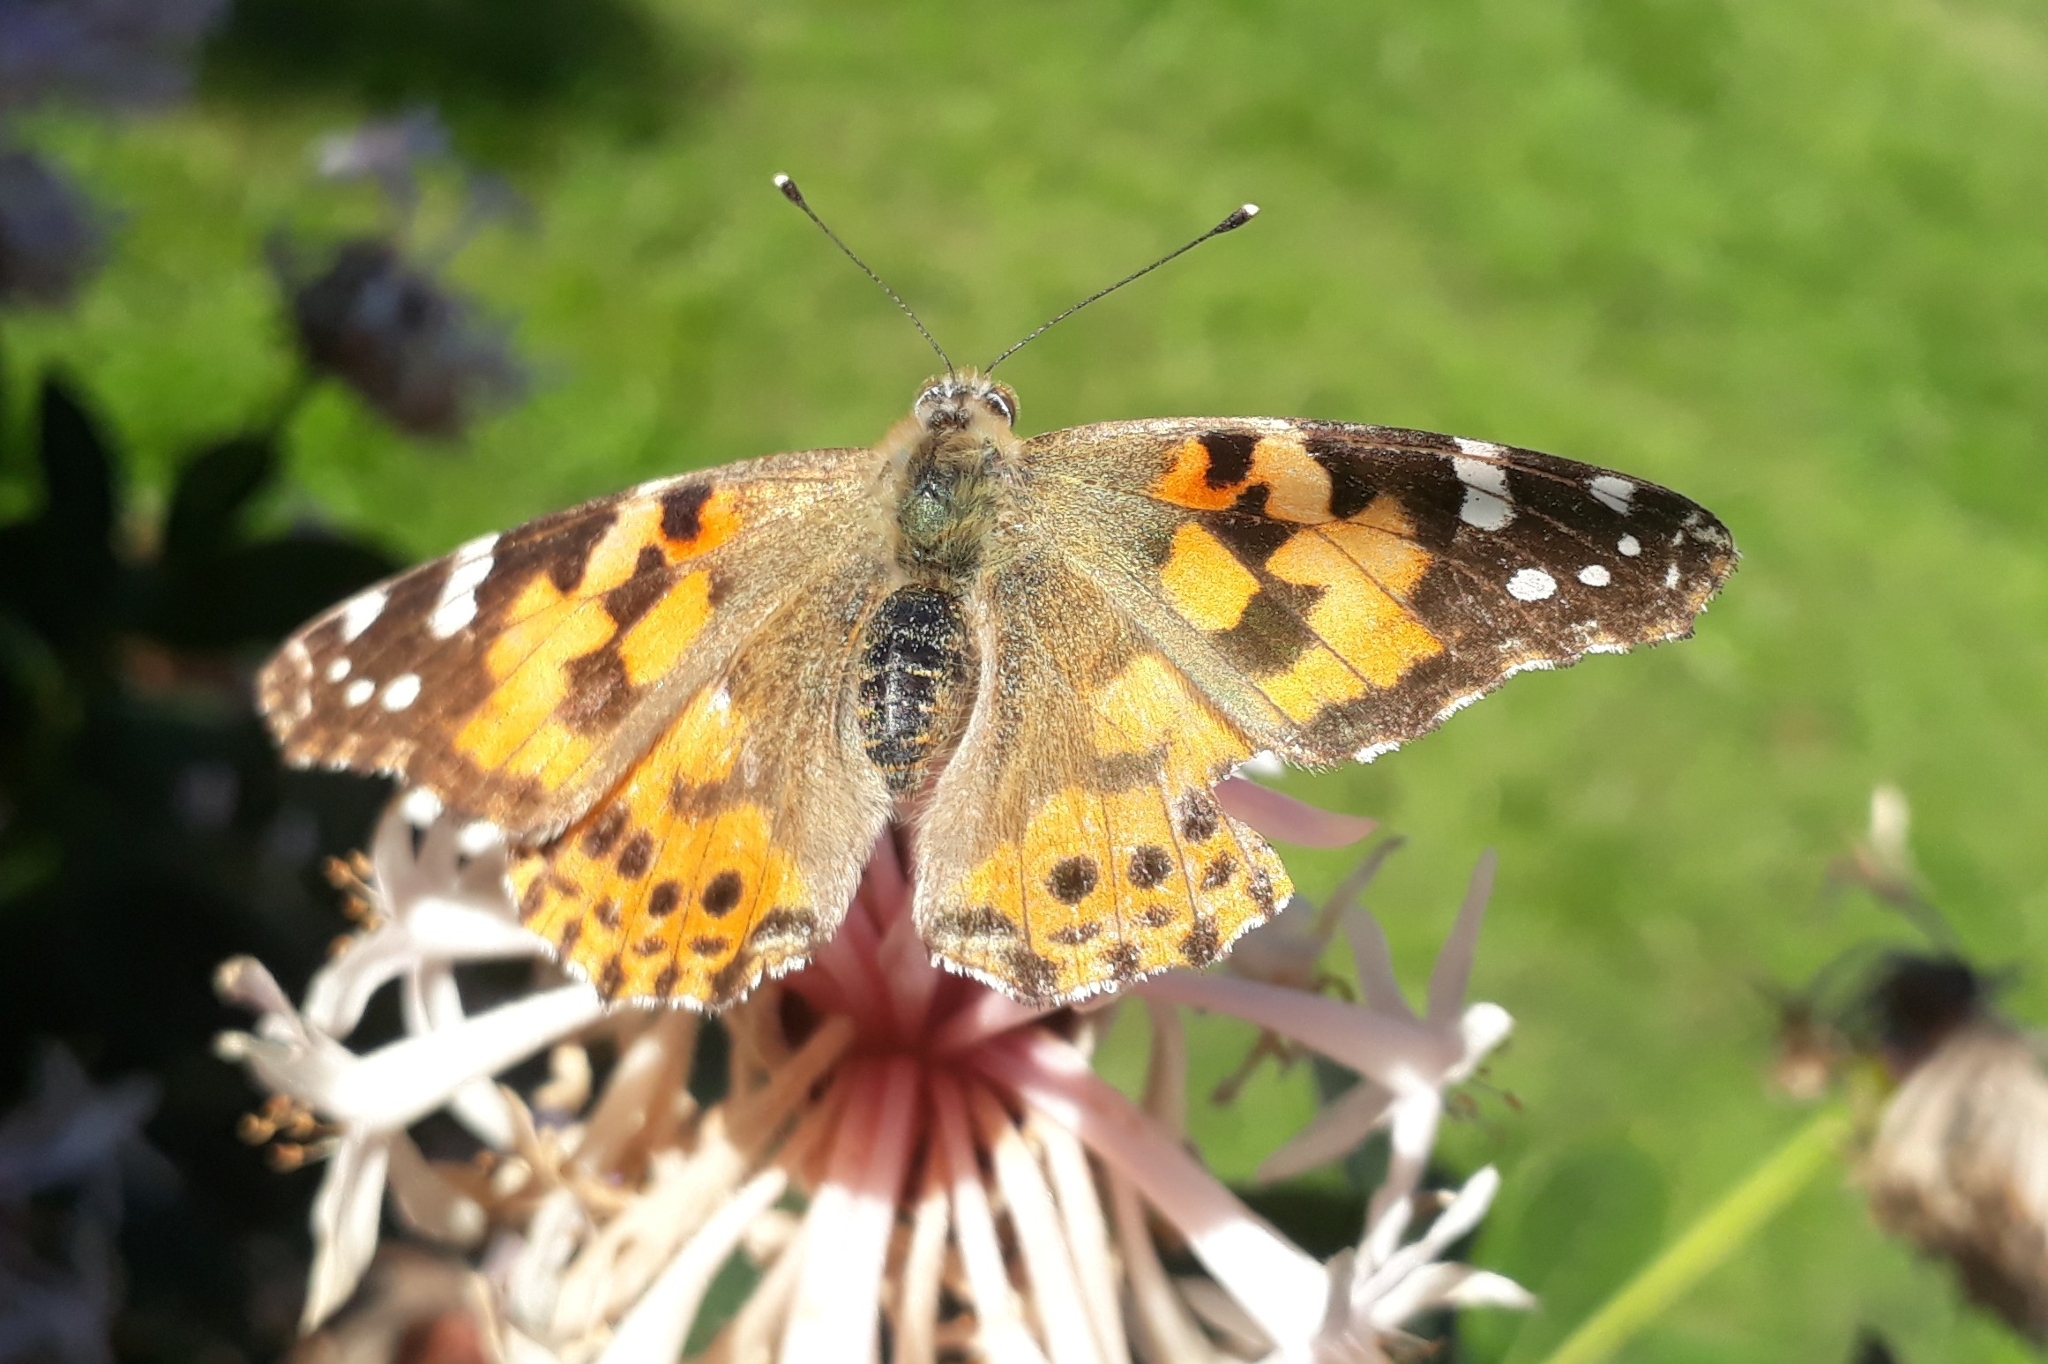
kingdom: Animalia
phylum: Arthropoda
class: Insecta
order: Lepidoptera
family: Nymphalidae
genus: Vanessa
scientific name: Vanessa cardui
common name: Painted lady
